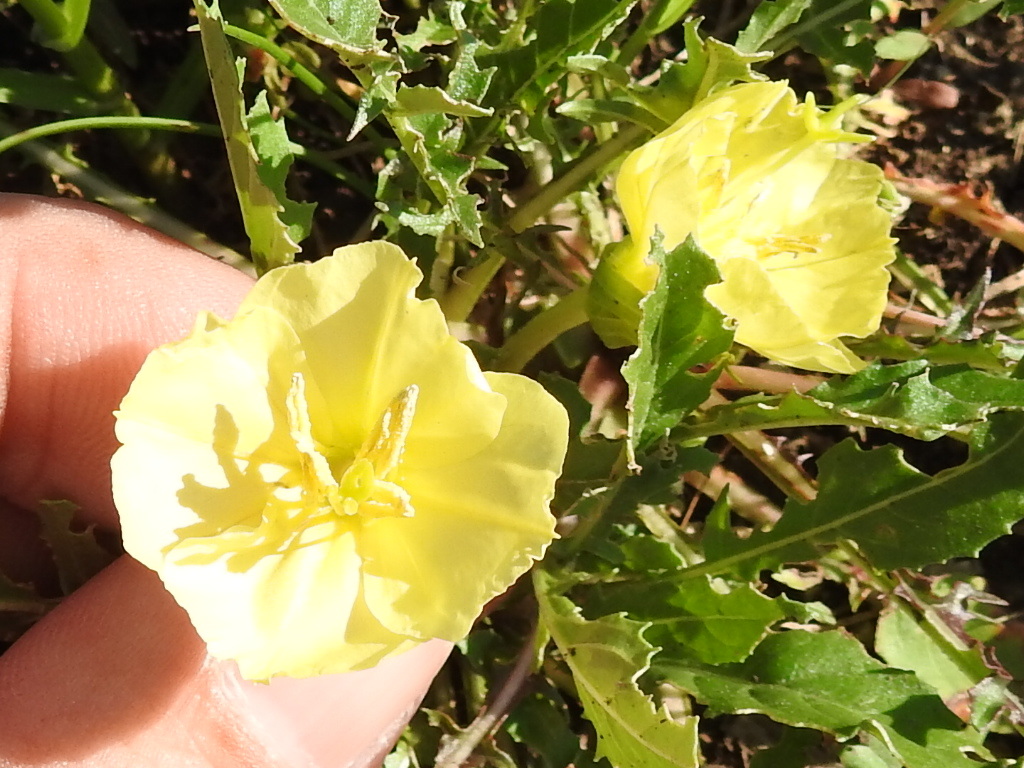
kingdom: Plantae
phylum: Tracheophyta
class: Magnoliopsida
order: Myrtales
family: Onagraceae
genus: Oenothera
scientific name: Oenothera triloba
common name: Sessile evening-primrose
